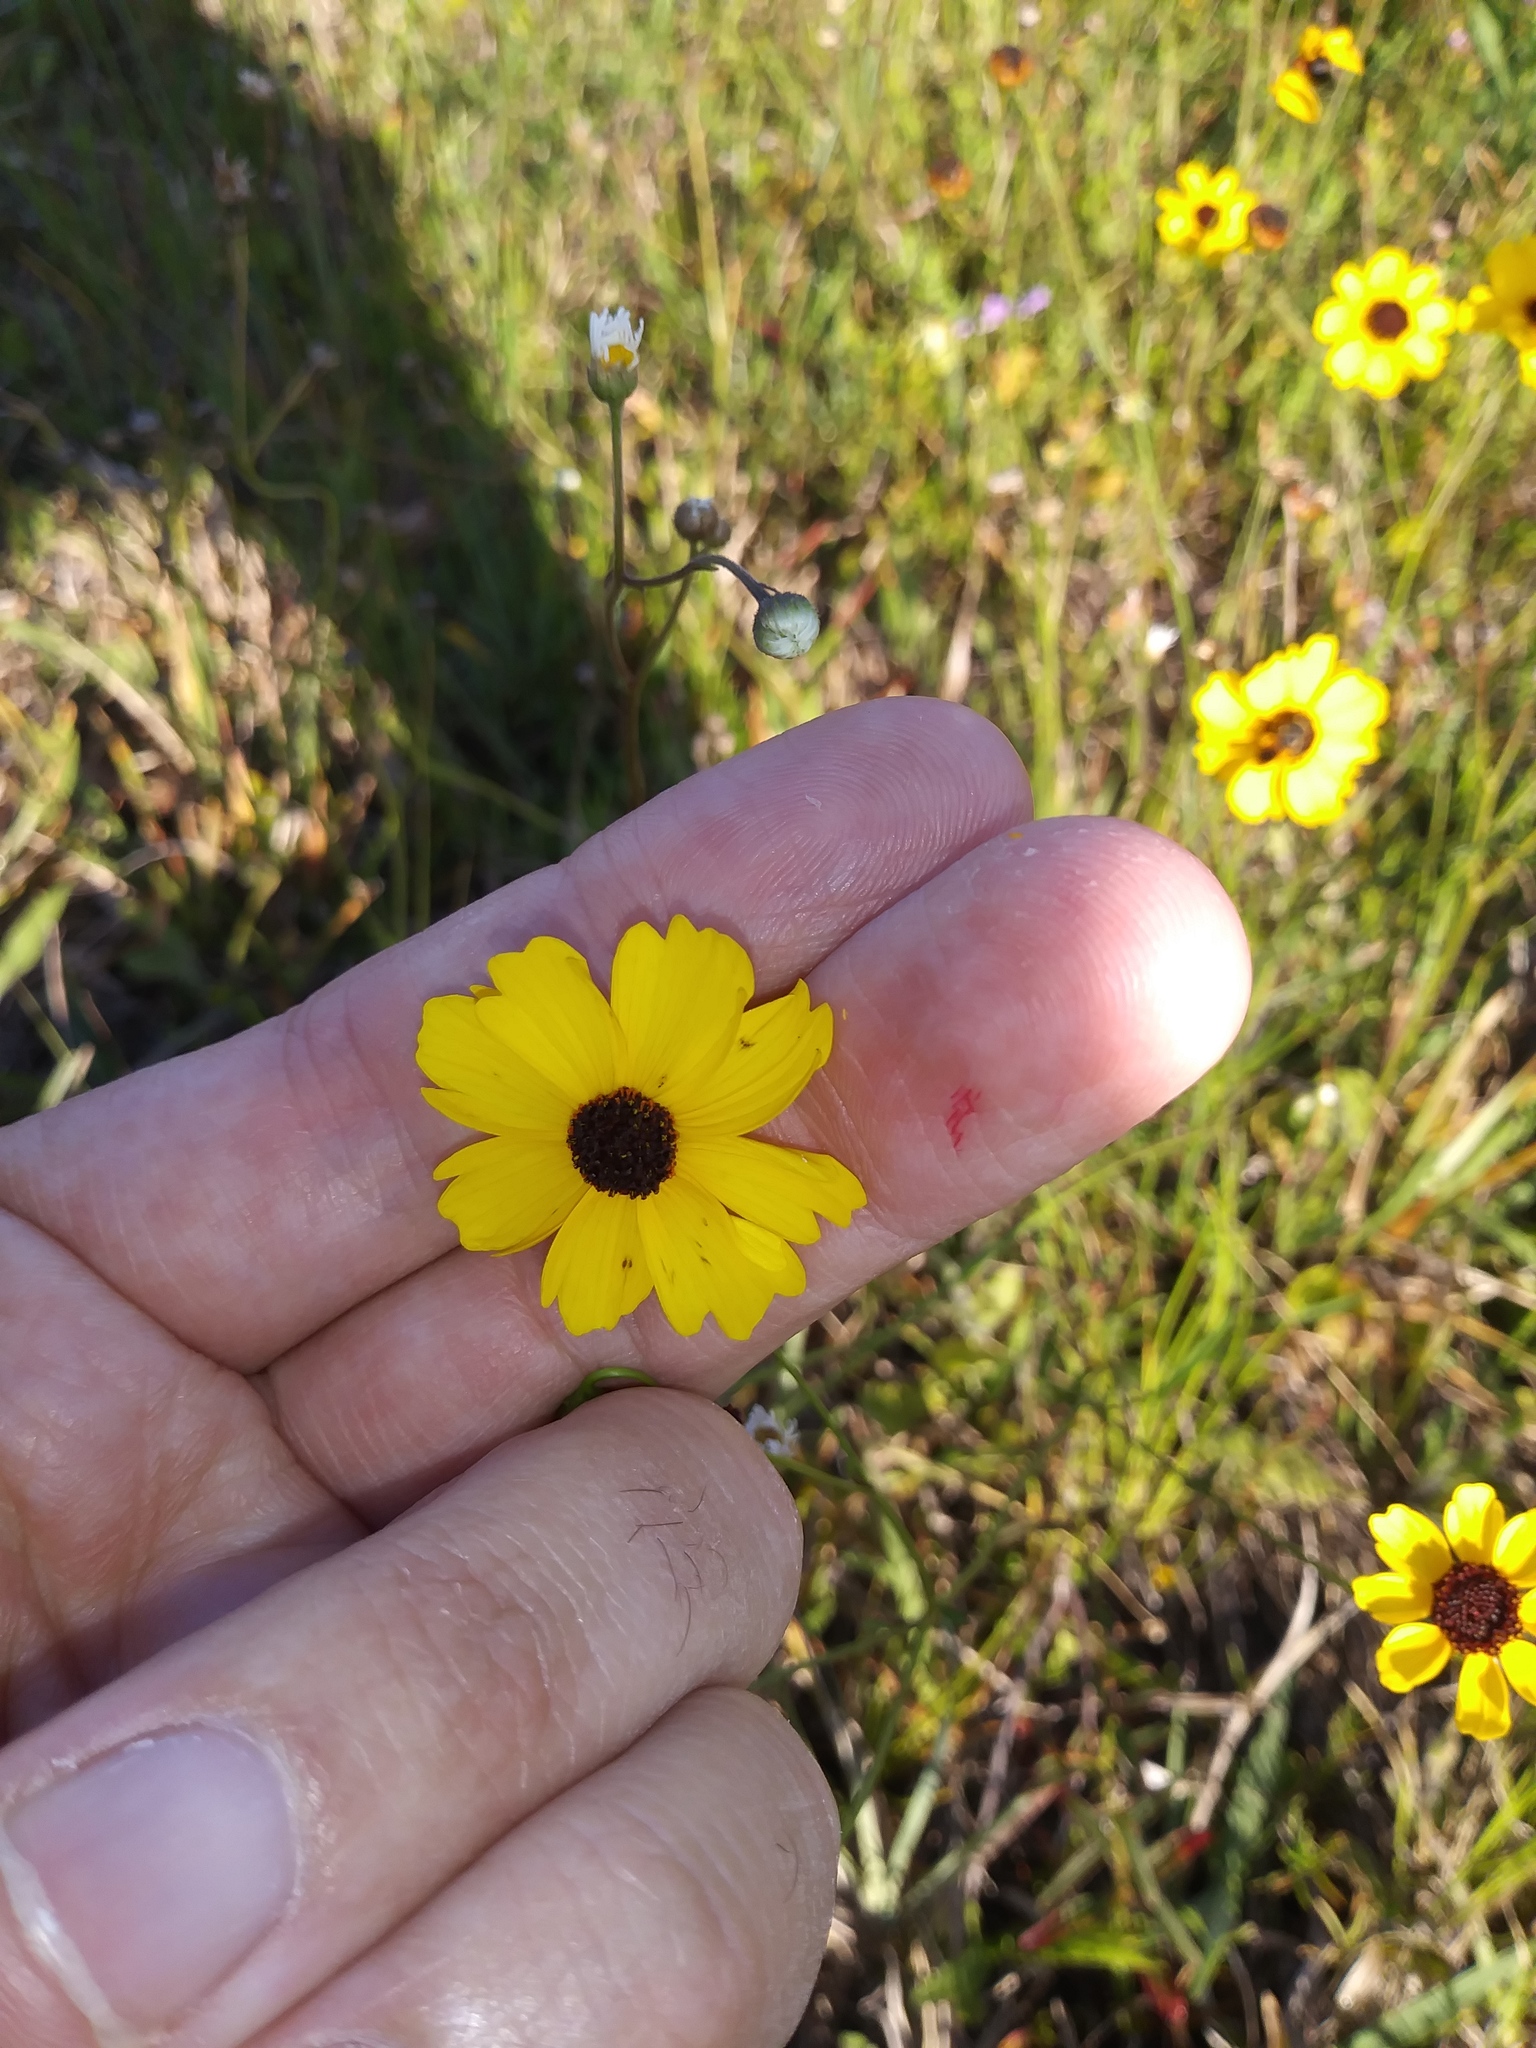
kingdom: Plantae
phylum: Tracheophyta
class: Magnoliopsida
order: Asterales
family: Asteraceae
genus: Coreopsis
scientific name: Coreopsis leavenworthii
